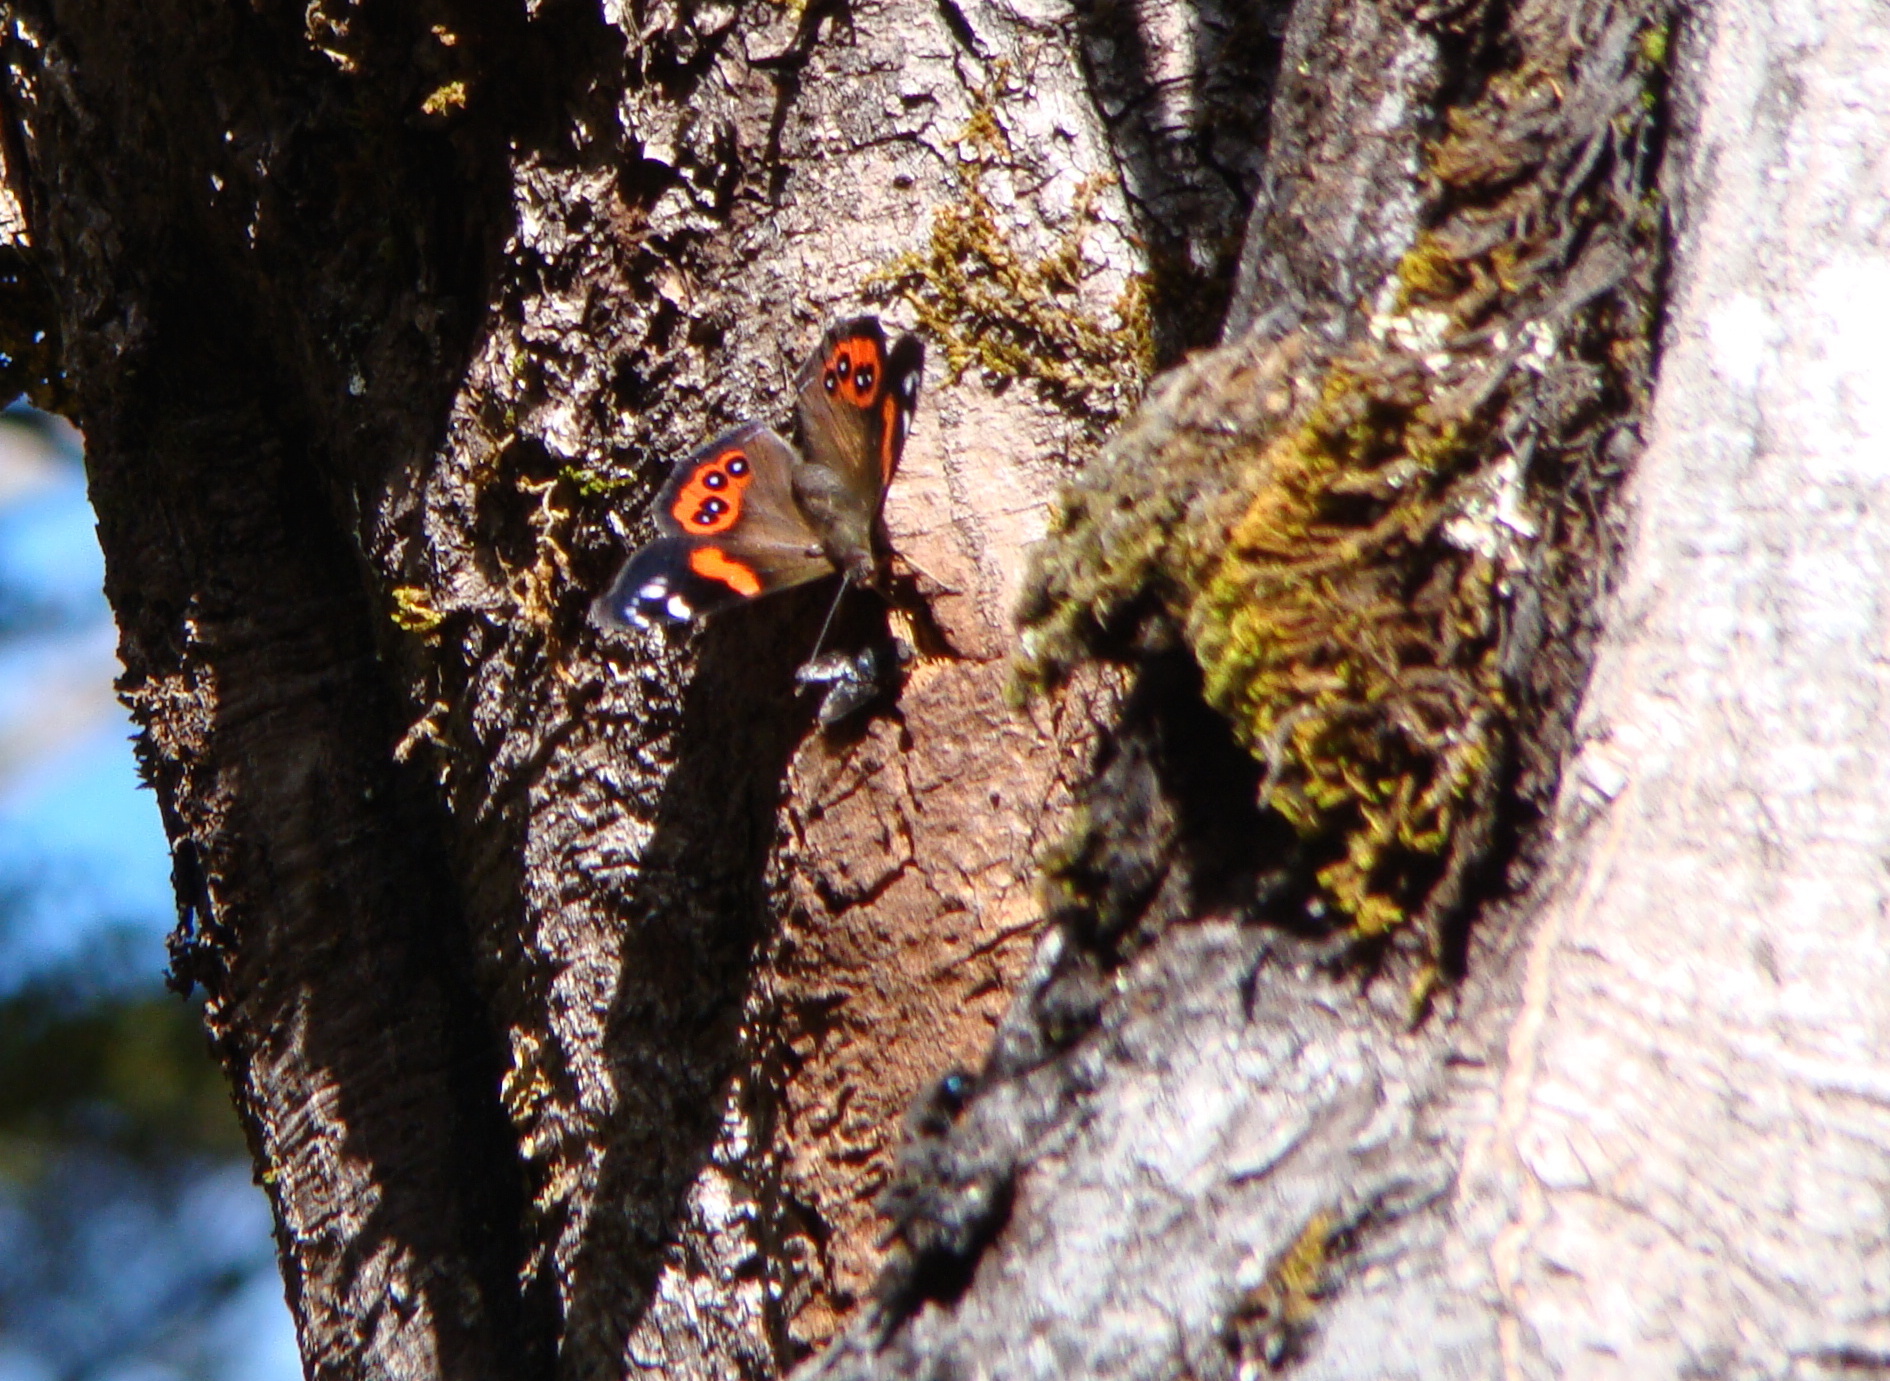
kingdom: Animalia
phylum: Arthropoda
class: Insecta
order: Lepidoptera
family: Nymphalidae
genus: Vanessa
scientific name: Vanessa gonerilla
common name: New zealand red admiral
